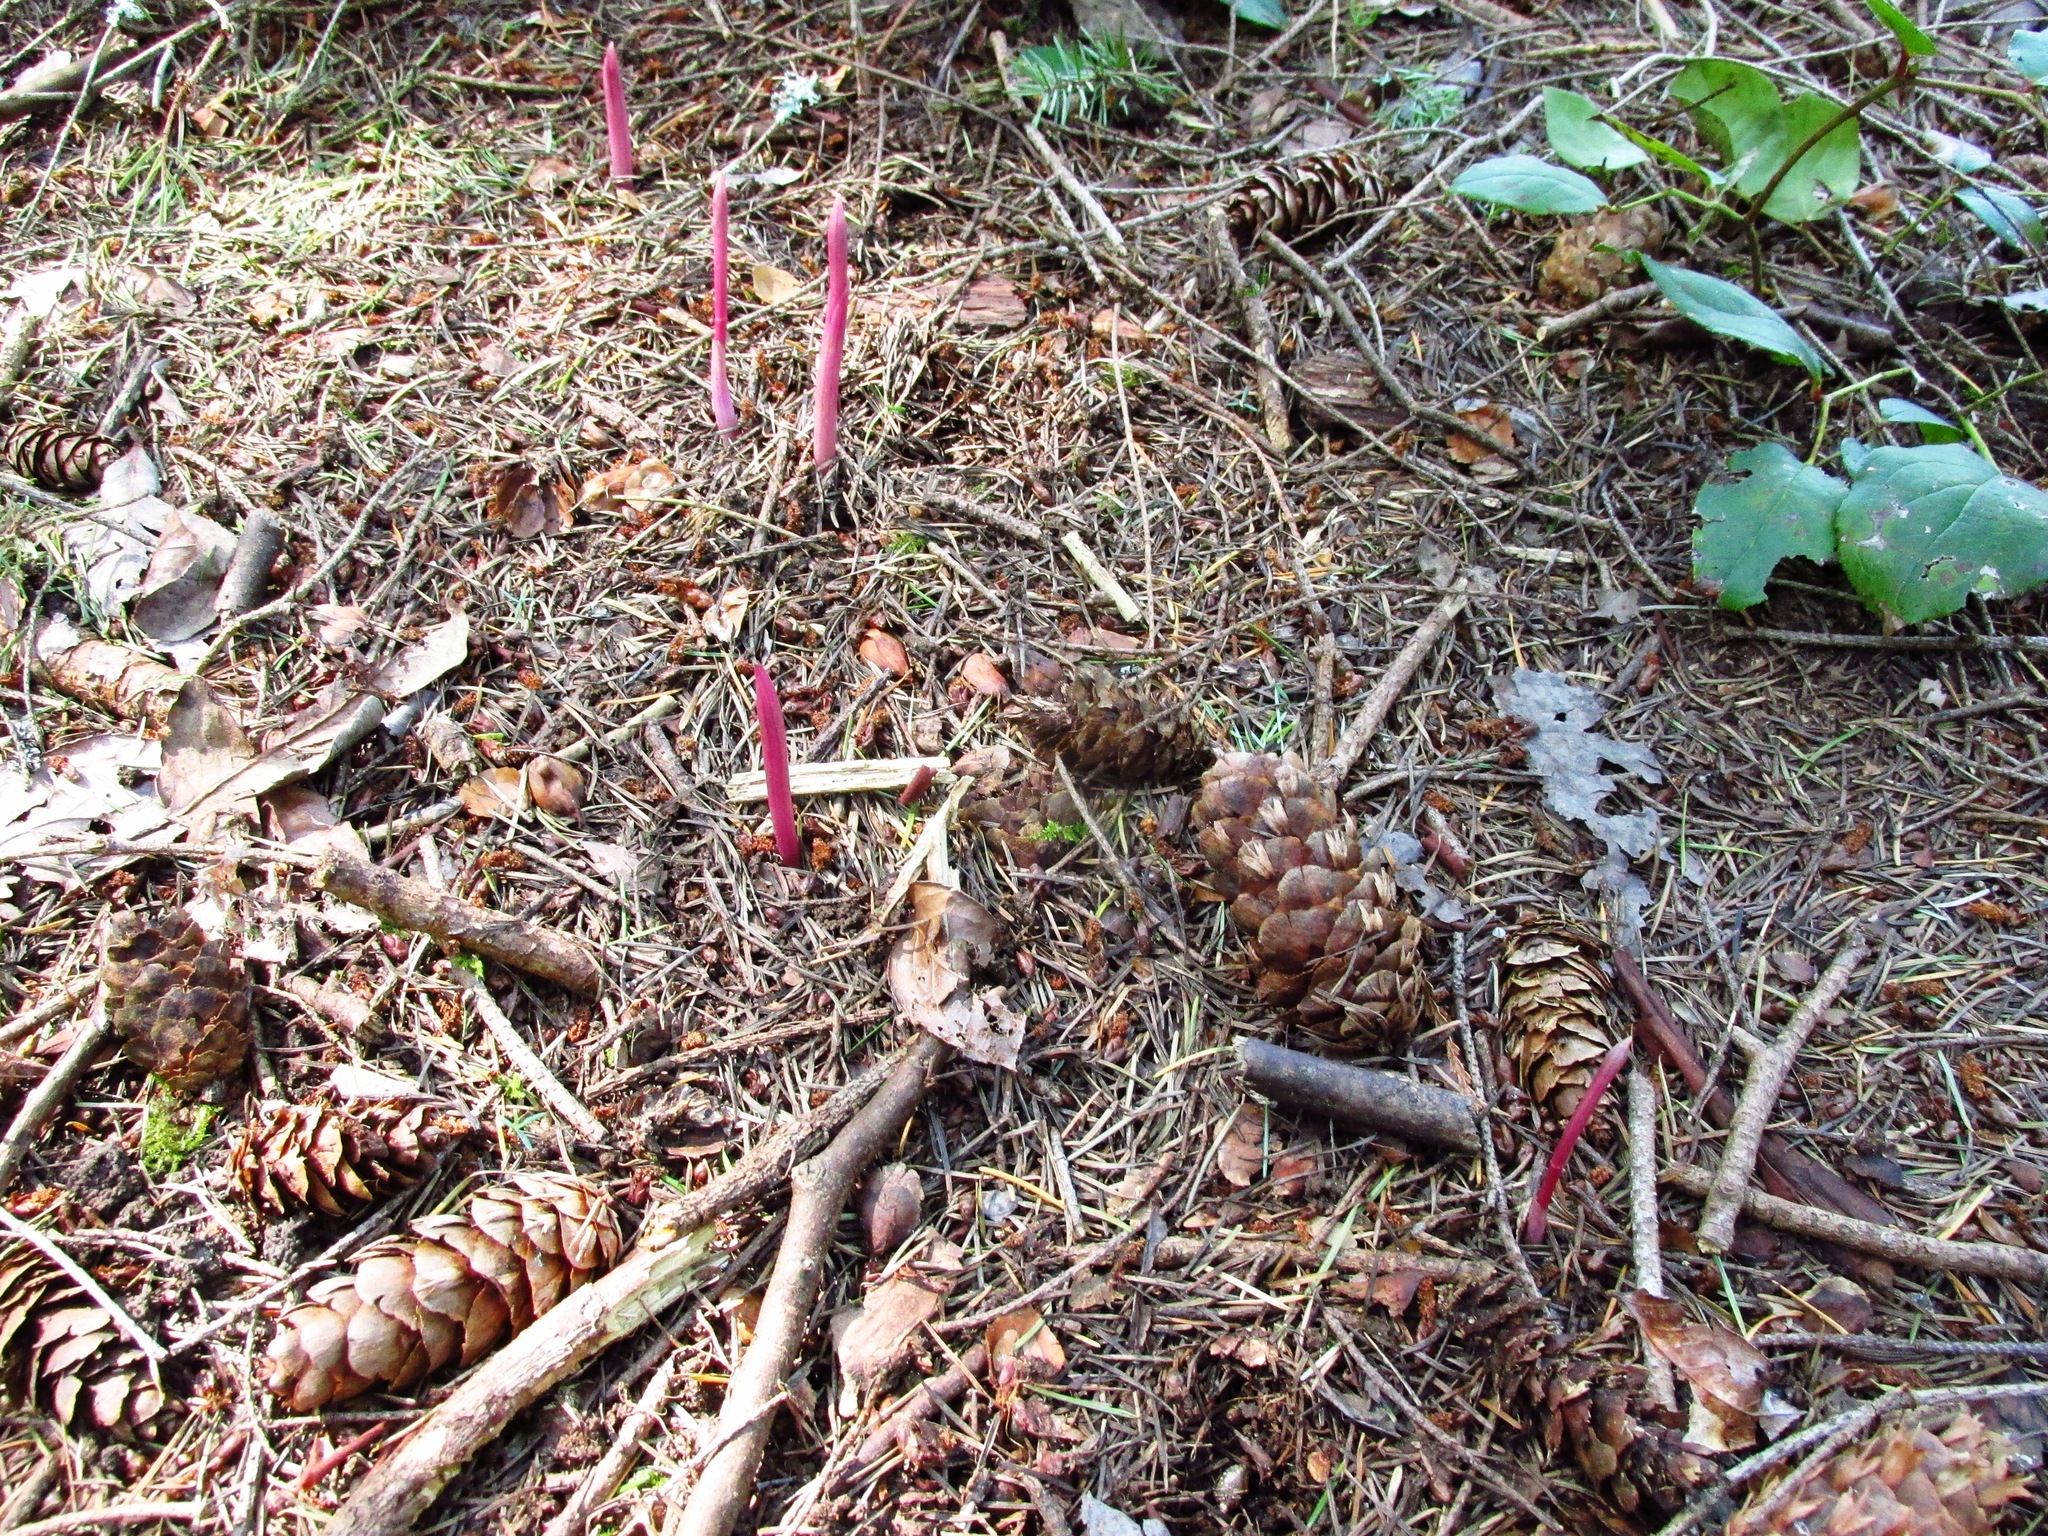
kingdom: Plantae
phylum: Tracheophyta
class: Liliopsida
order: Asparagales
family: Orchidaceae
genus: Corallorhiza
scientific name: Corallorhiza maculata
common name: Spotted coralroot
